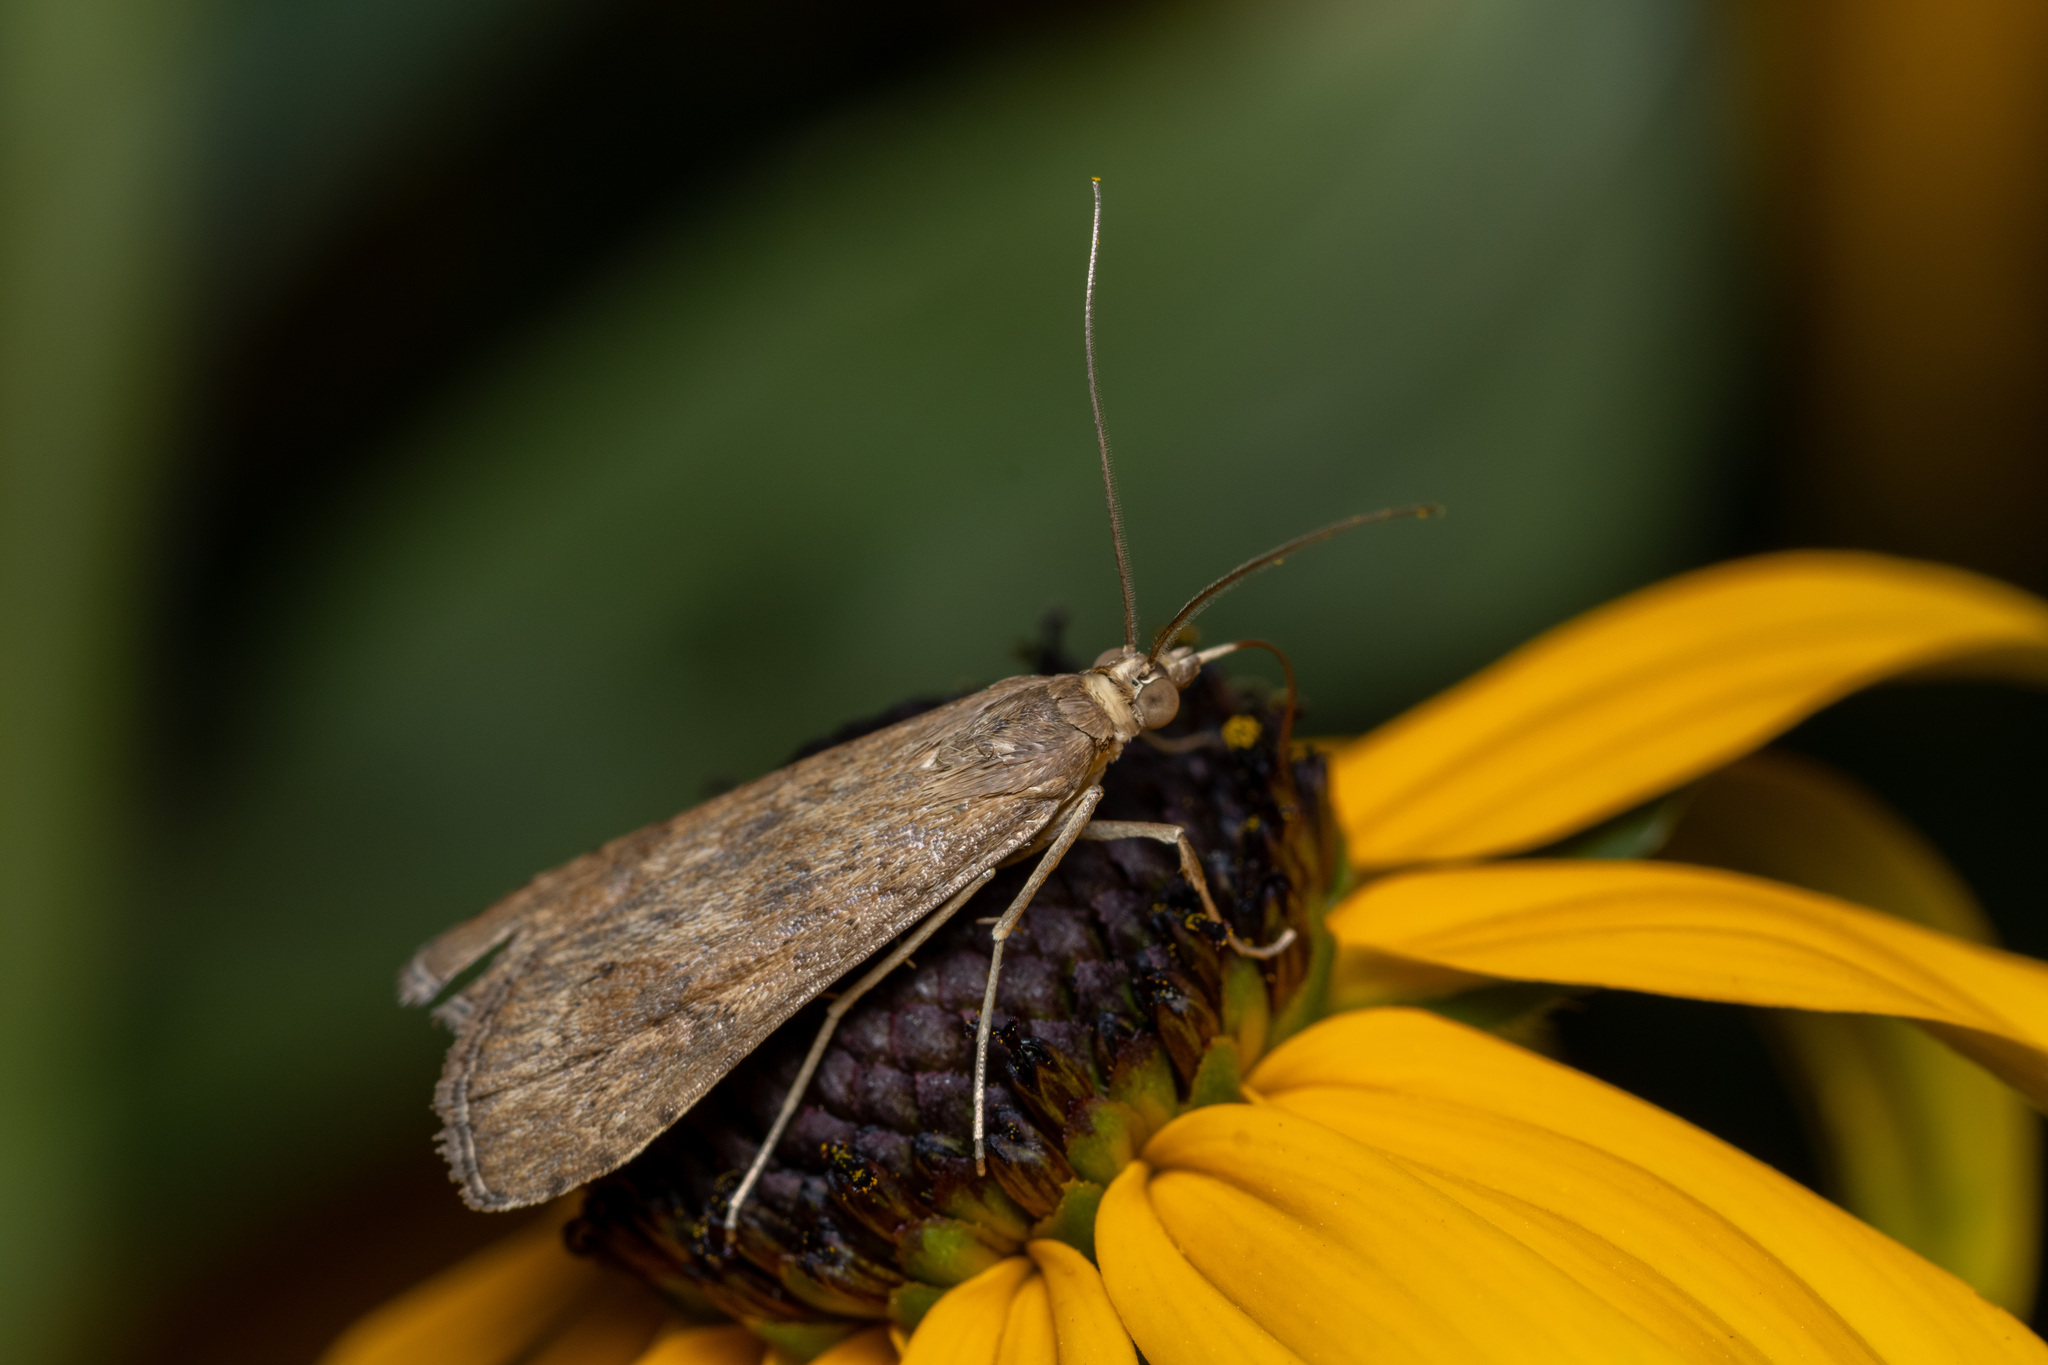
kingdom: Animalia
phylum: Arthropoda
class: Insecta
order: Lepidoptera
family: Crambidae
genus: Nomophila
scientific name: Nomophila noctuella
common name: Rush veneer
